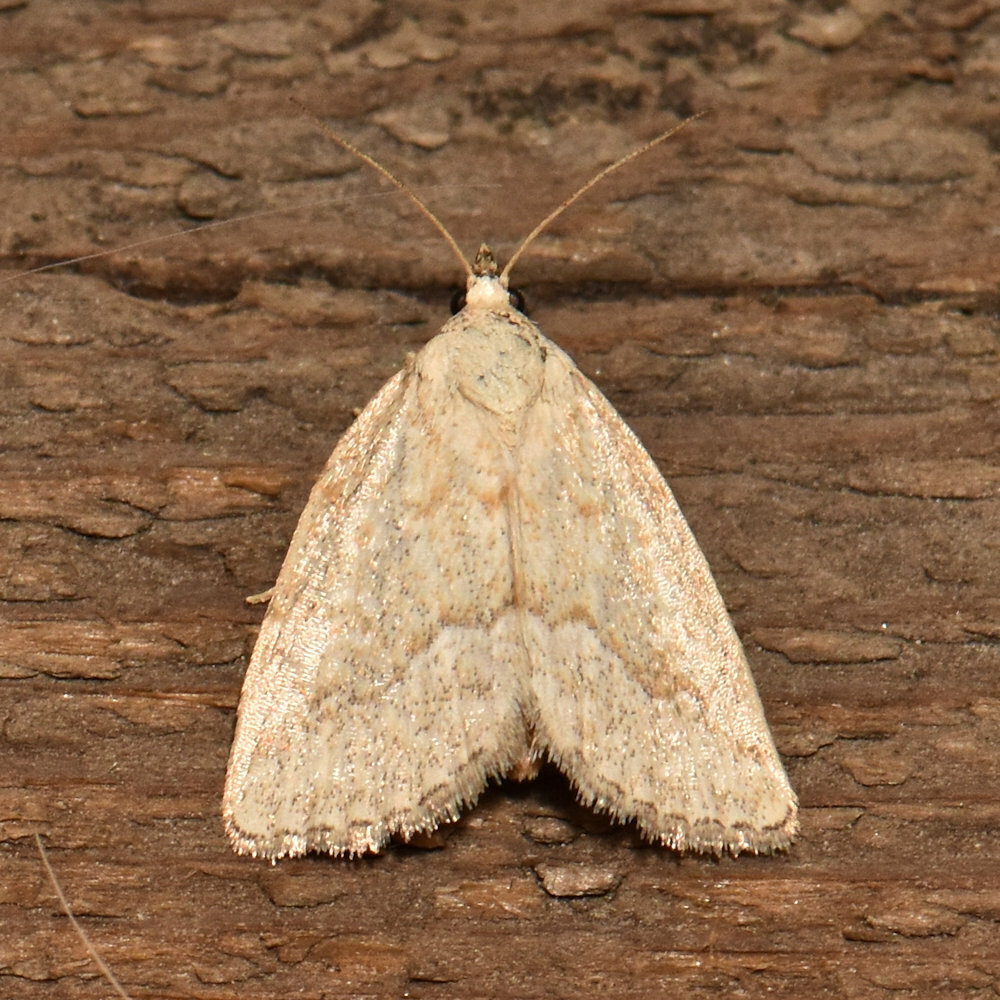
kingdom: Animalia
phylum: Arthropoda
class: Insecta
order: Lepidoptera
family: Noctuidae
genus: Protodeltote
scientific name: Protodeltote albidula
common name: Pale glyph
